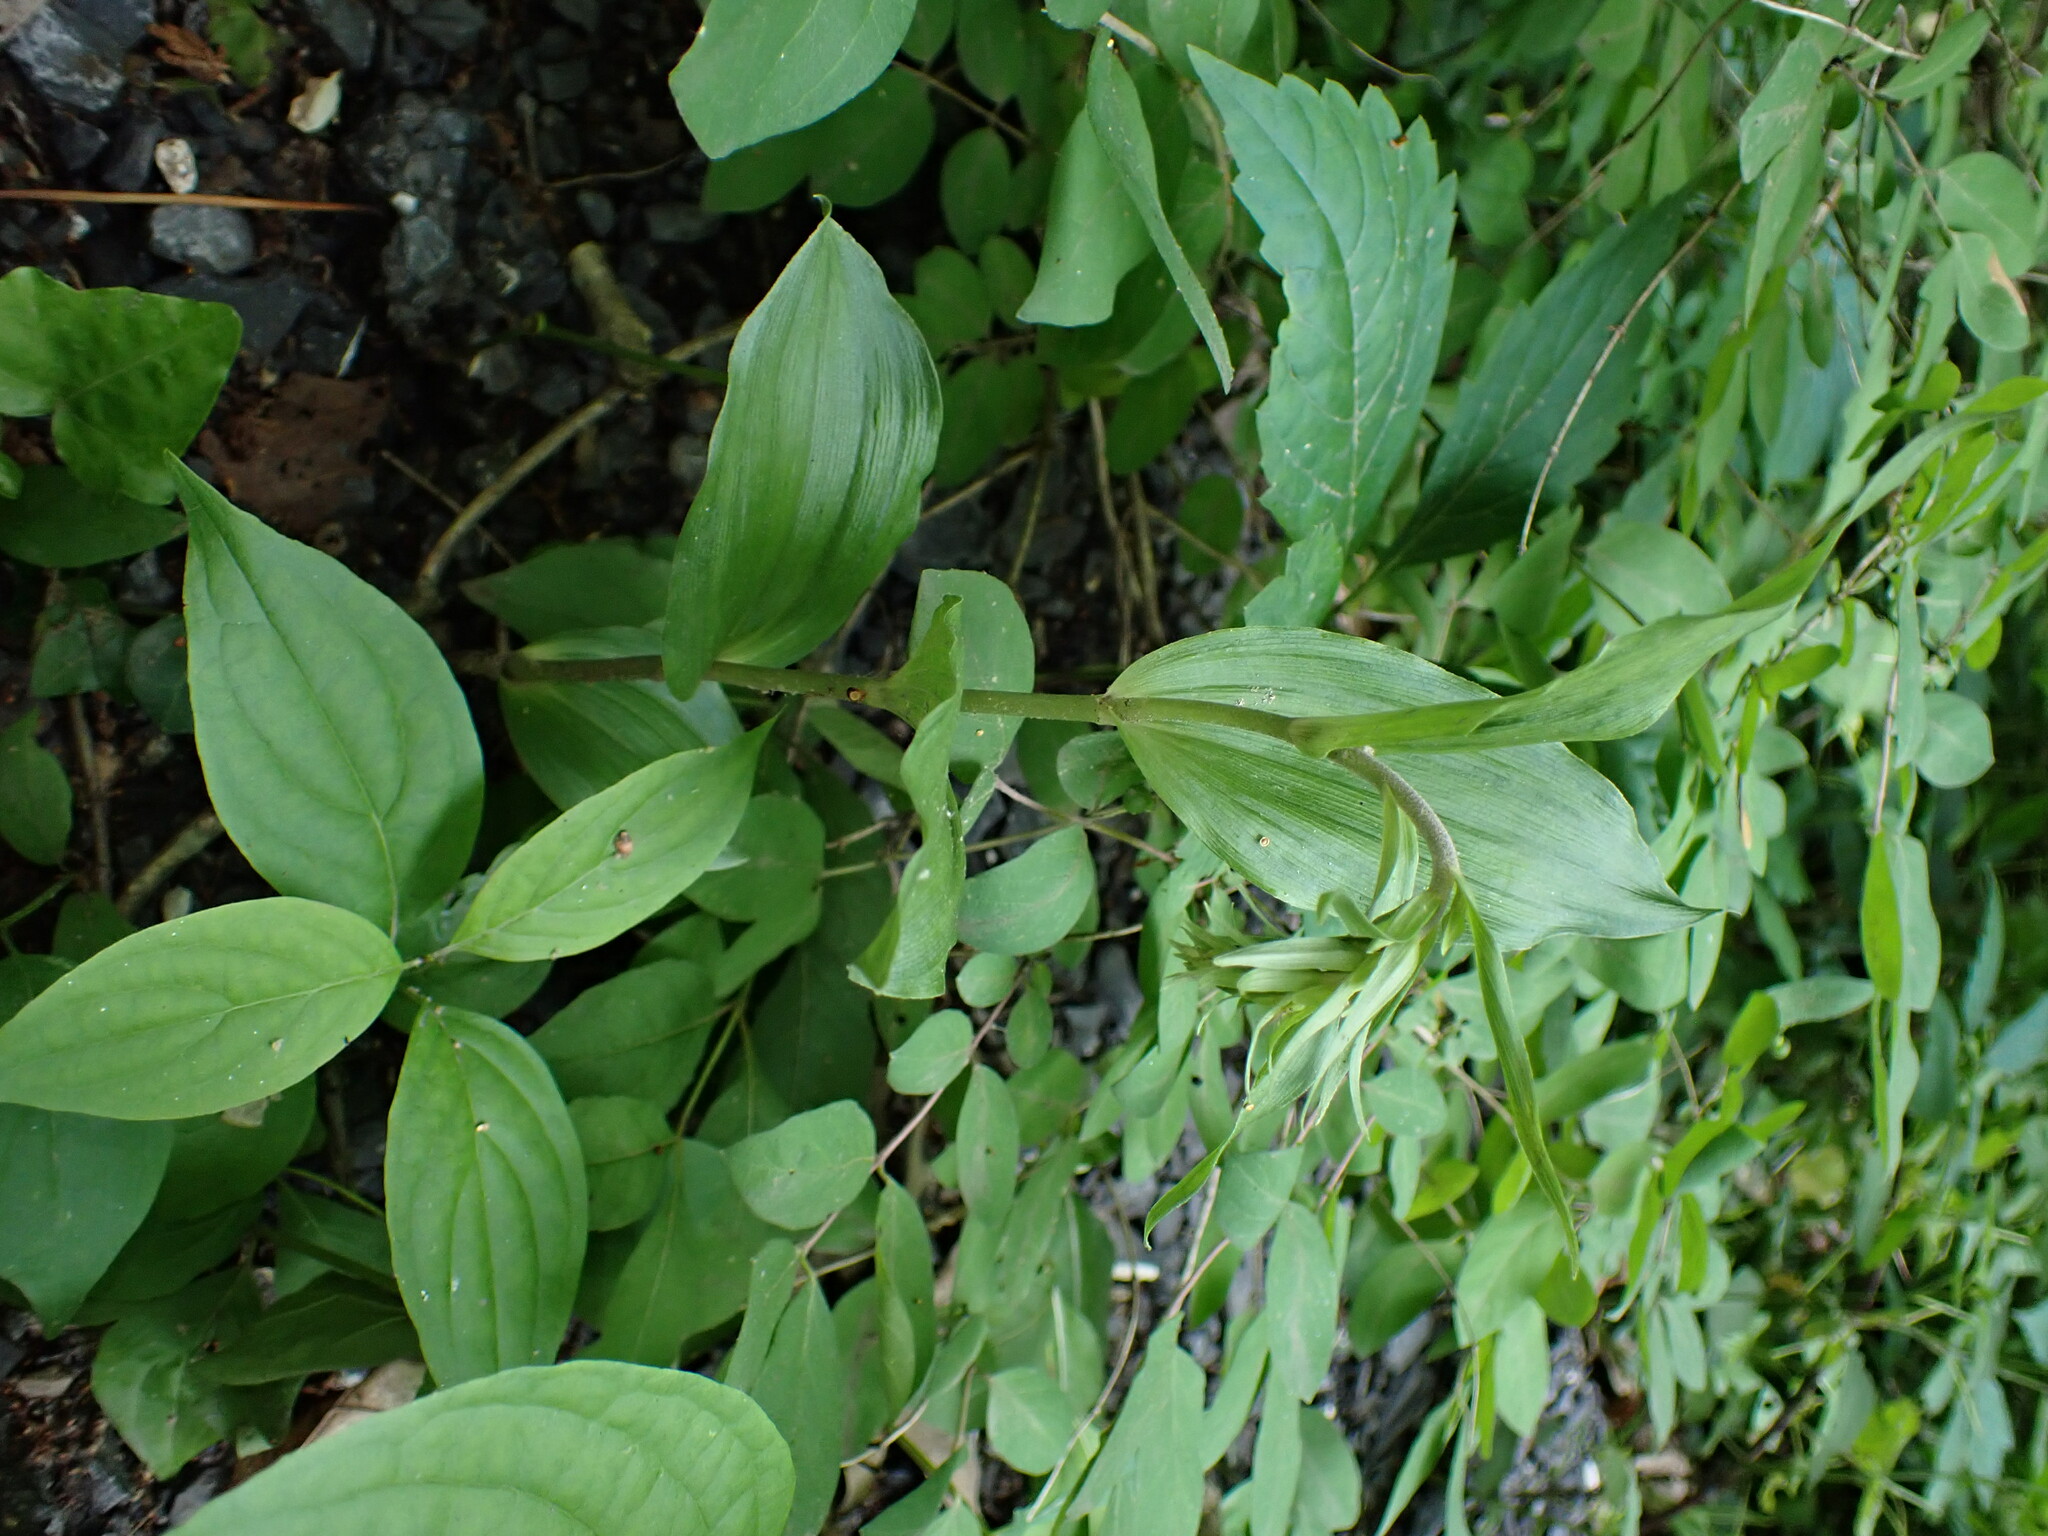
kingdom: Plantae
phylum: Tracheophyta
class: Liliopsida
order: Asparagales
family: Orchidaceae
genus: Epipactis
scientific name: Epipactis helleborine
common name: Broad-leaved helleborine
